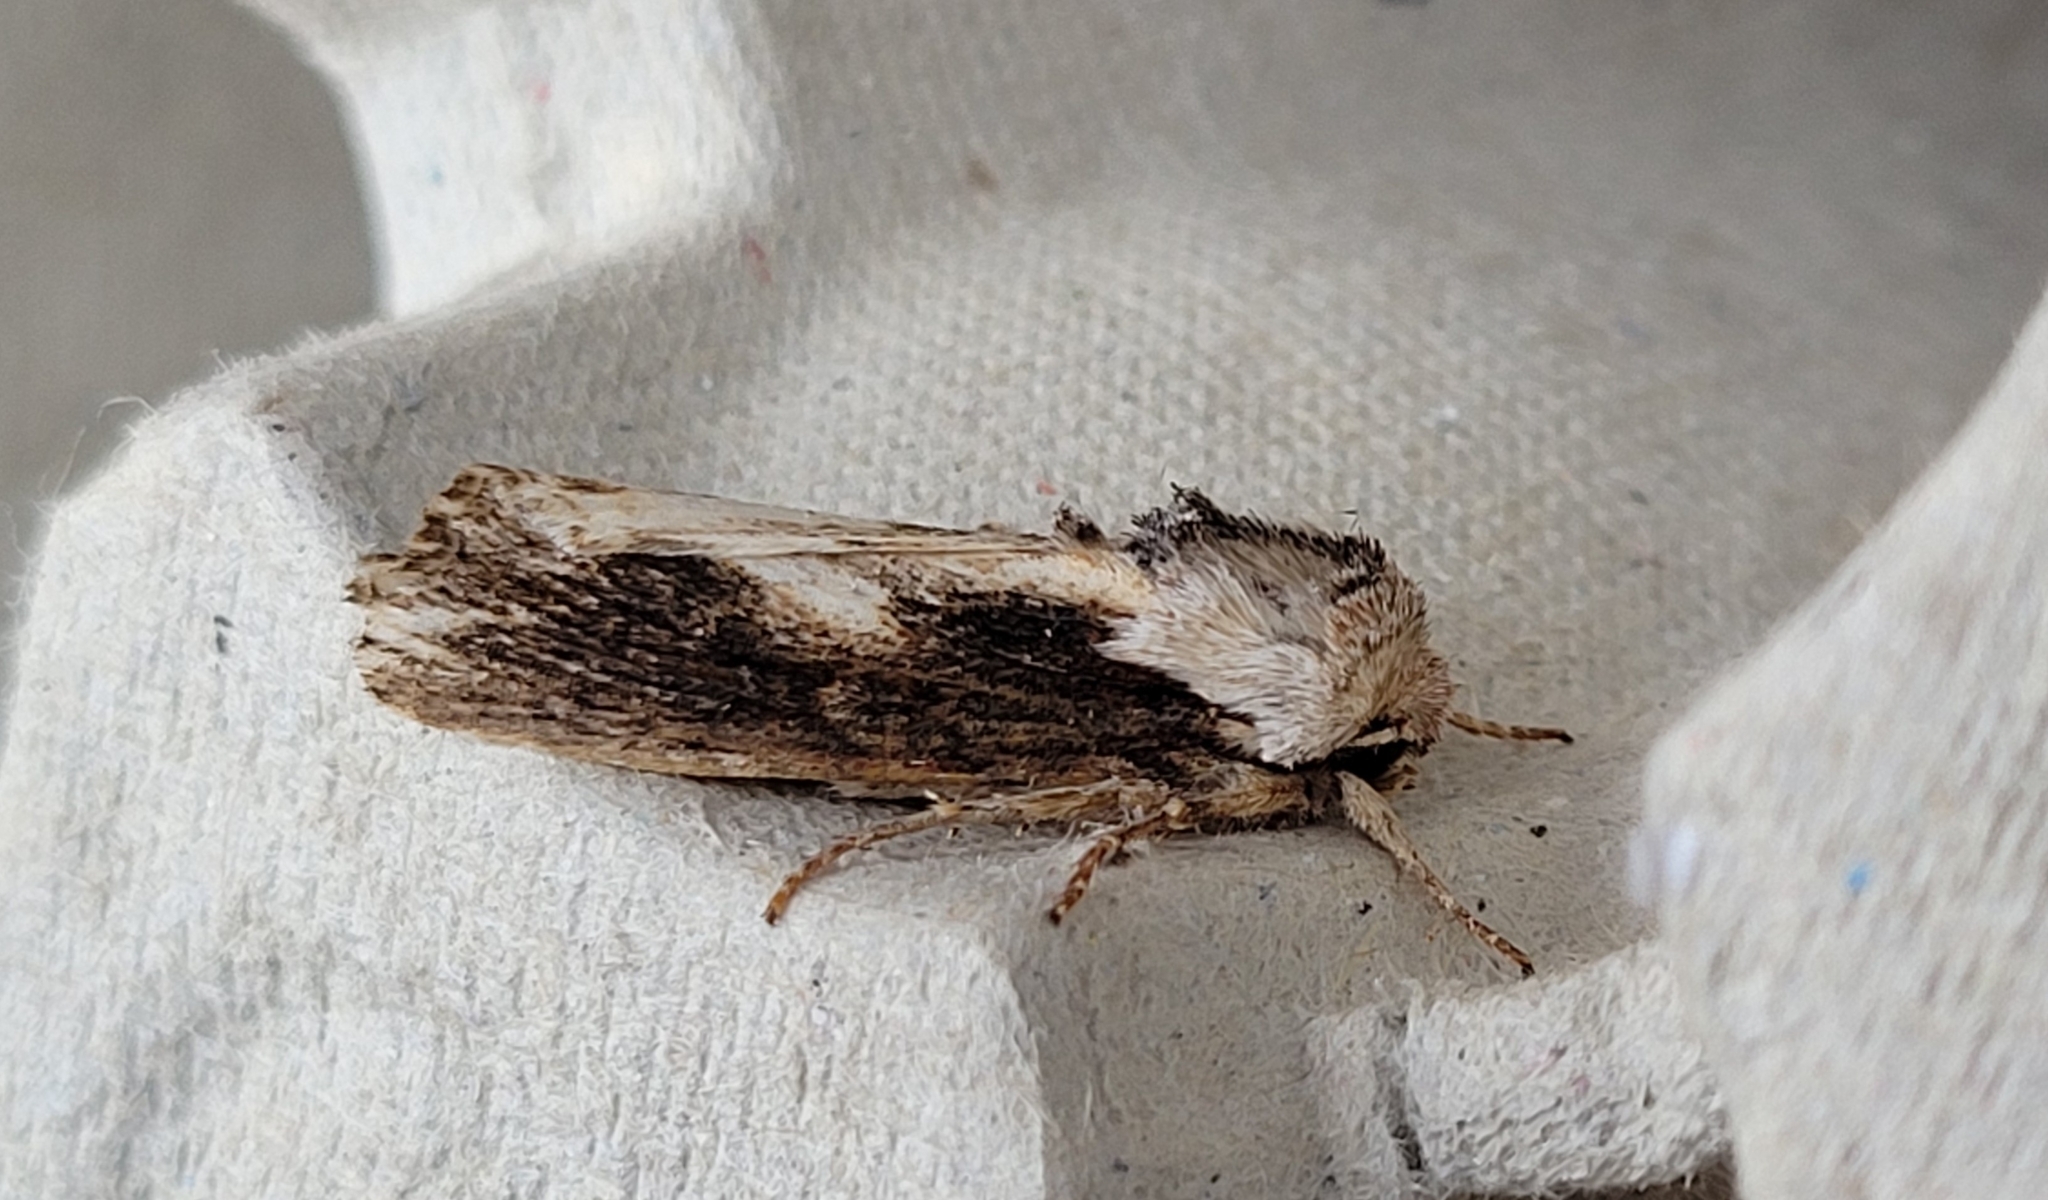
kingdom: Animalia
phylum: Arthropoda
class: Insecta
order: Lepidoptera
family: Noctuidae
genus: Egira
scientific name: Egira conspicillaris
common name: Silver cloud
